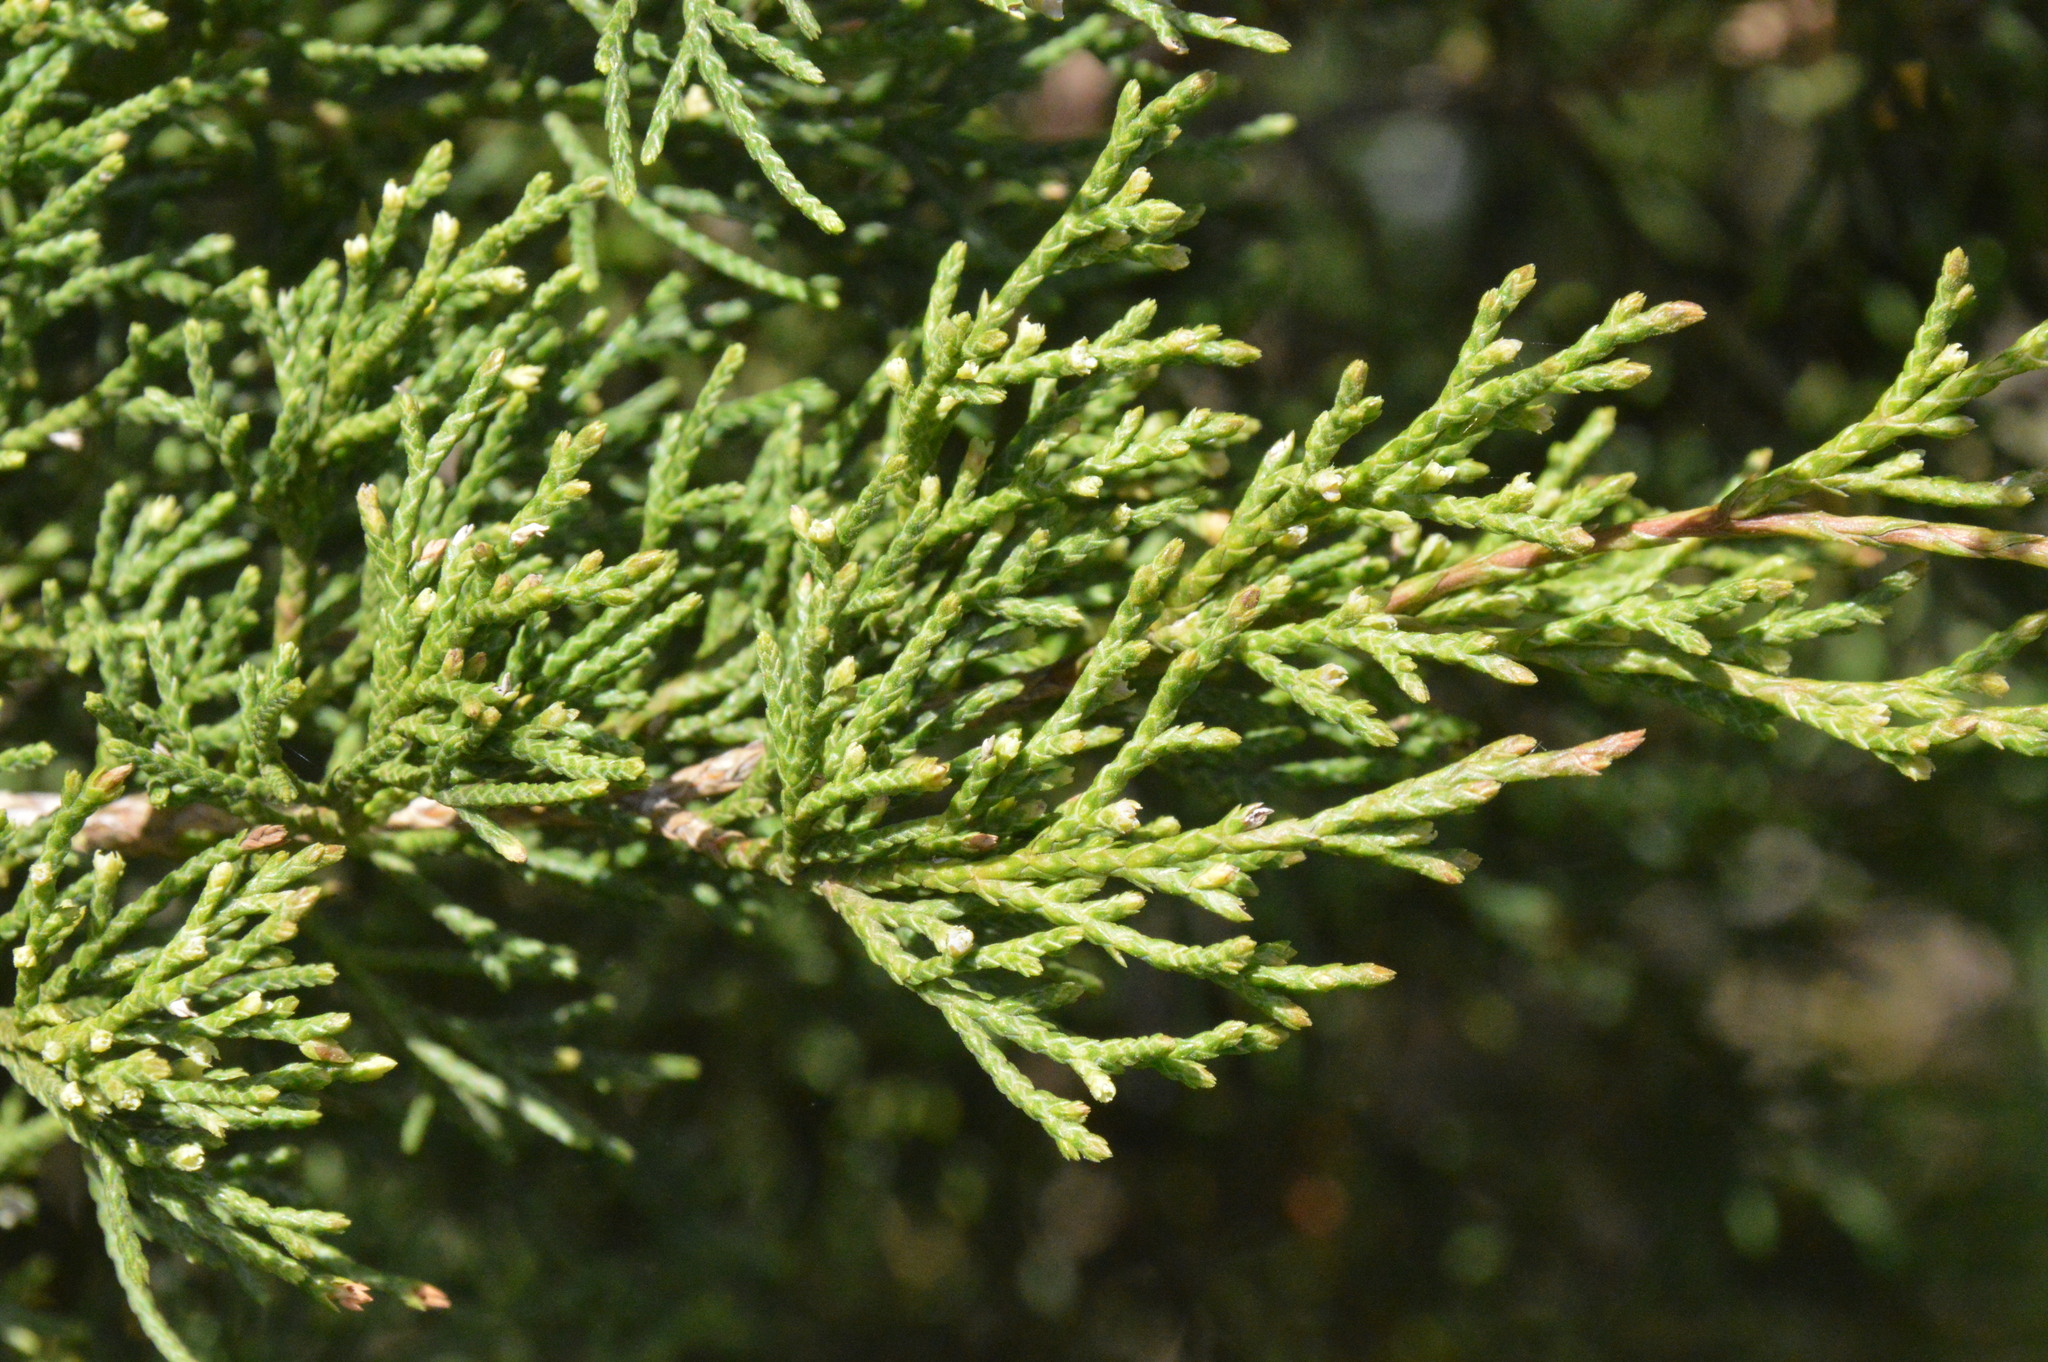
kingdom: Plantae
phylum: Tracheophyta
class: Pinopsida
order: Pinales
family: Cupressaceae
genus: Juniperus
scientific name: Juniperus virginiana
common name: Red juniper
